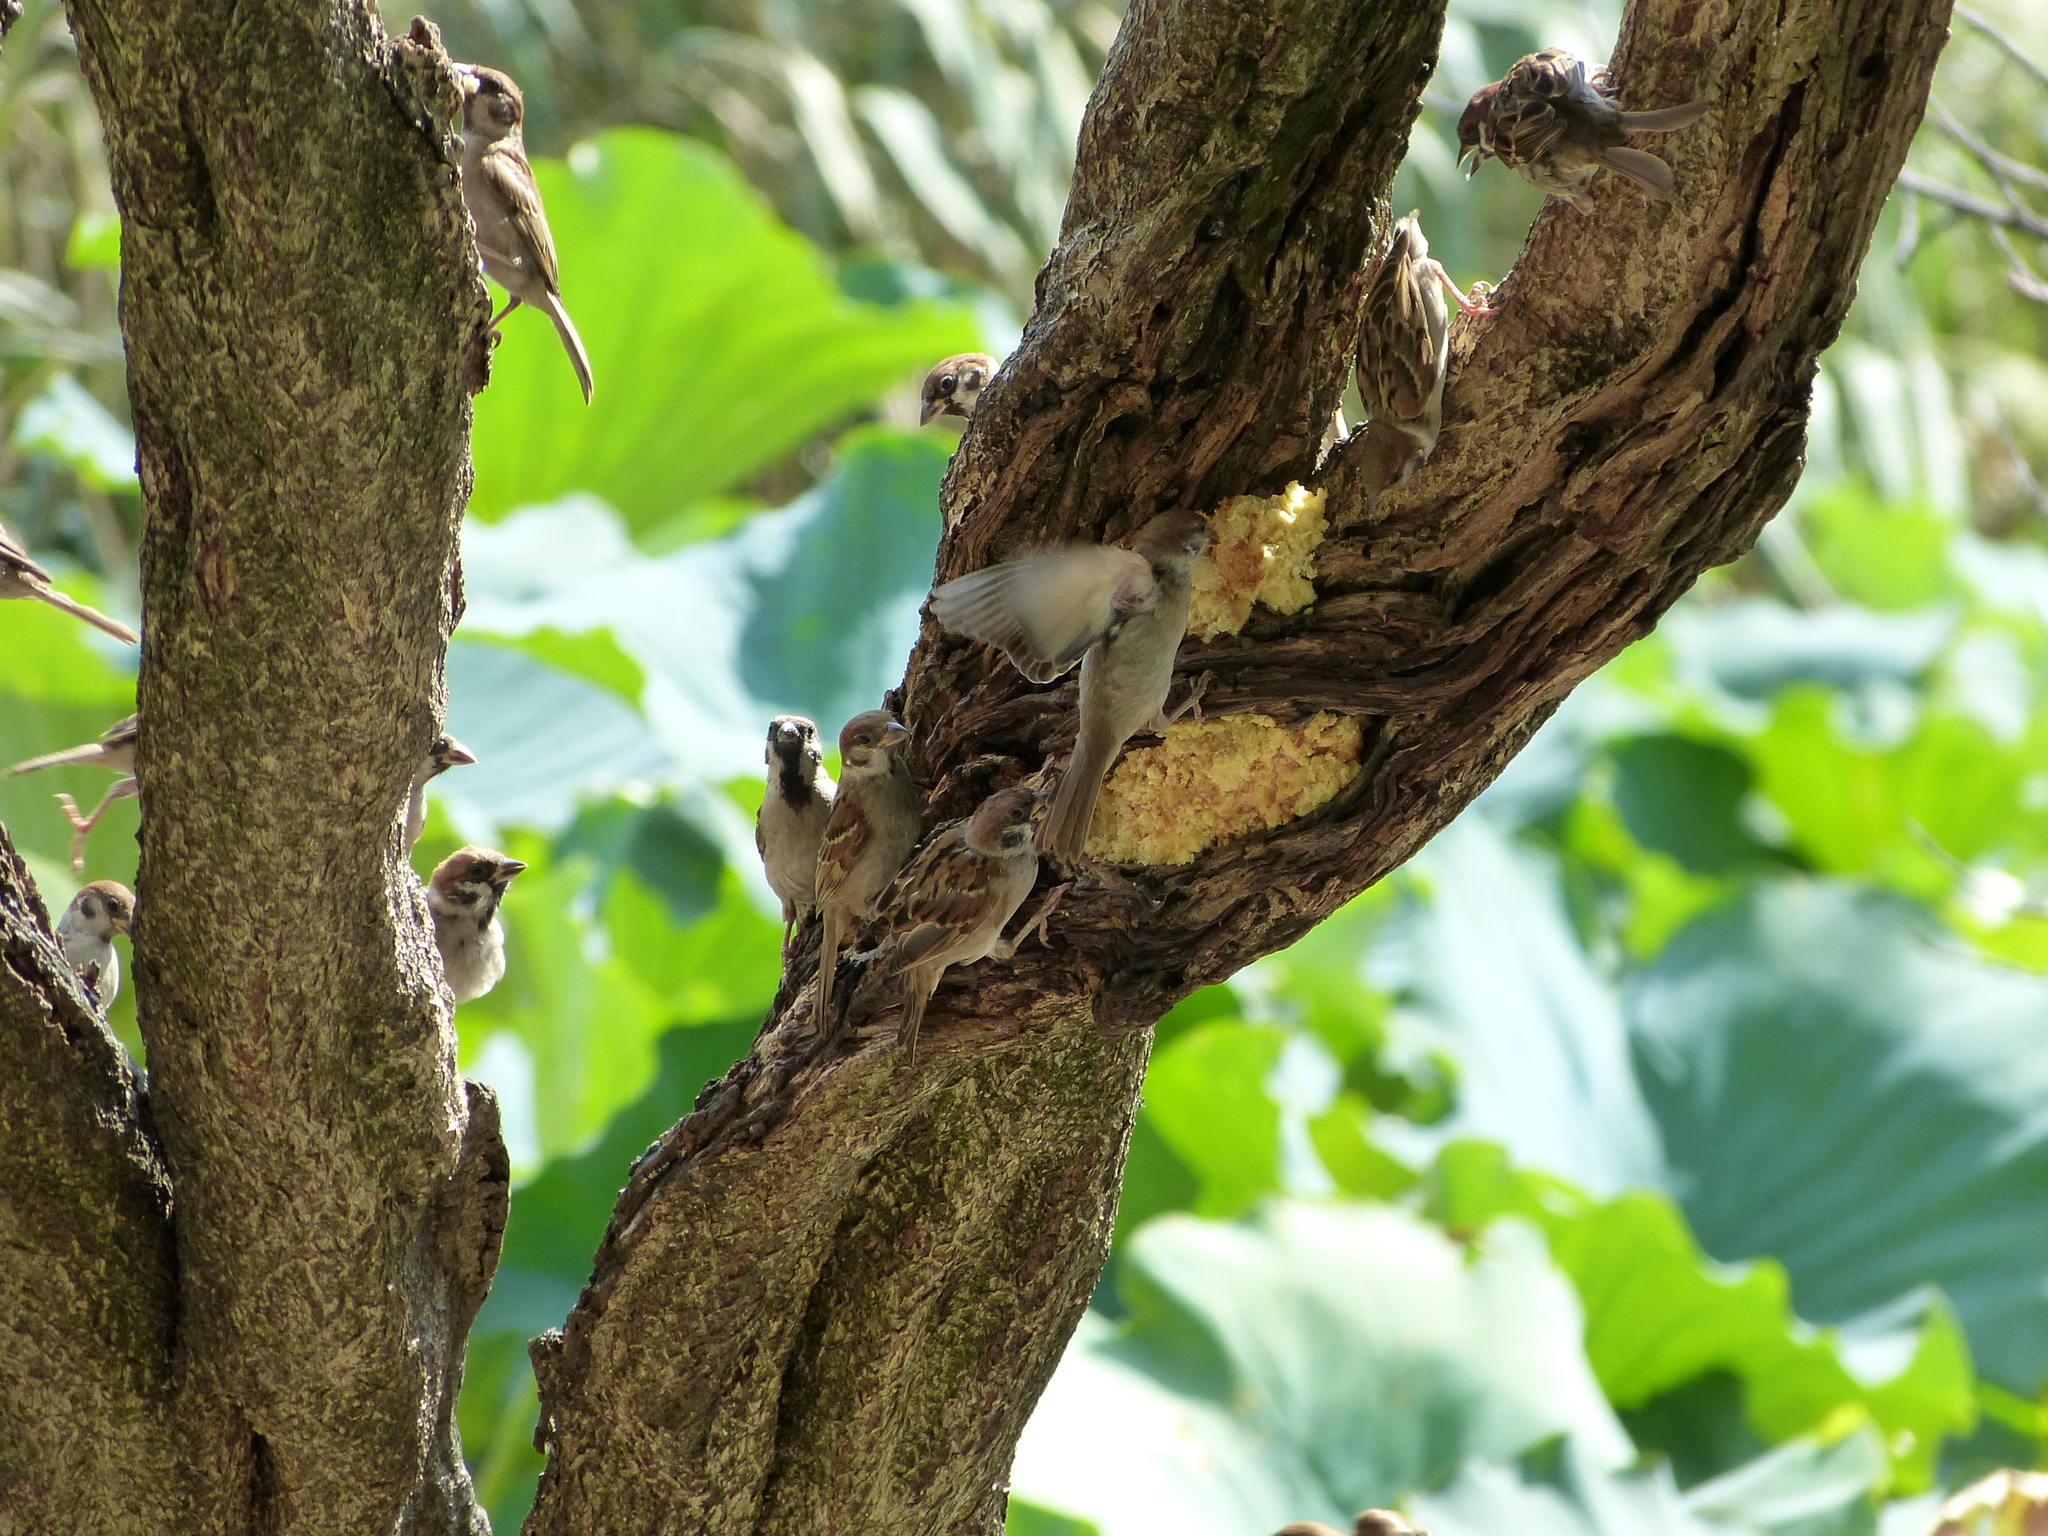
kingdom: Animalia
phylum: Chordata
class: Aves
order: Passeriformes
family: Passeridae
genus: Passer
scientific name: Passer montanus
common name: Eurasian tree sparrow
